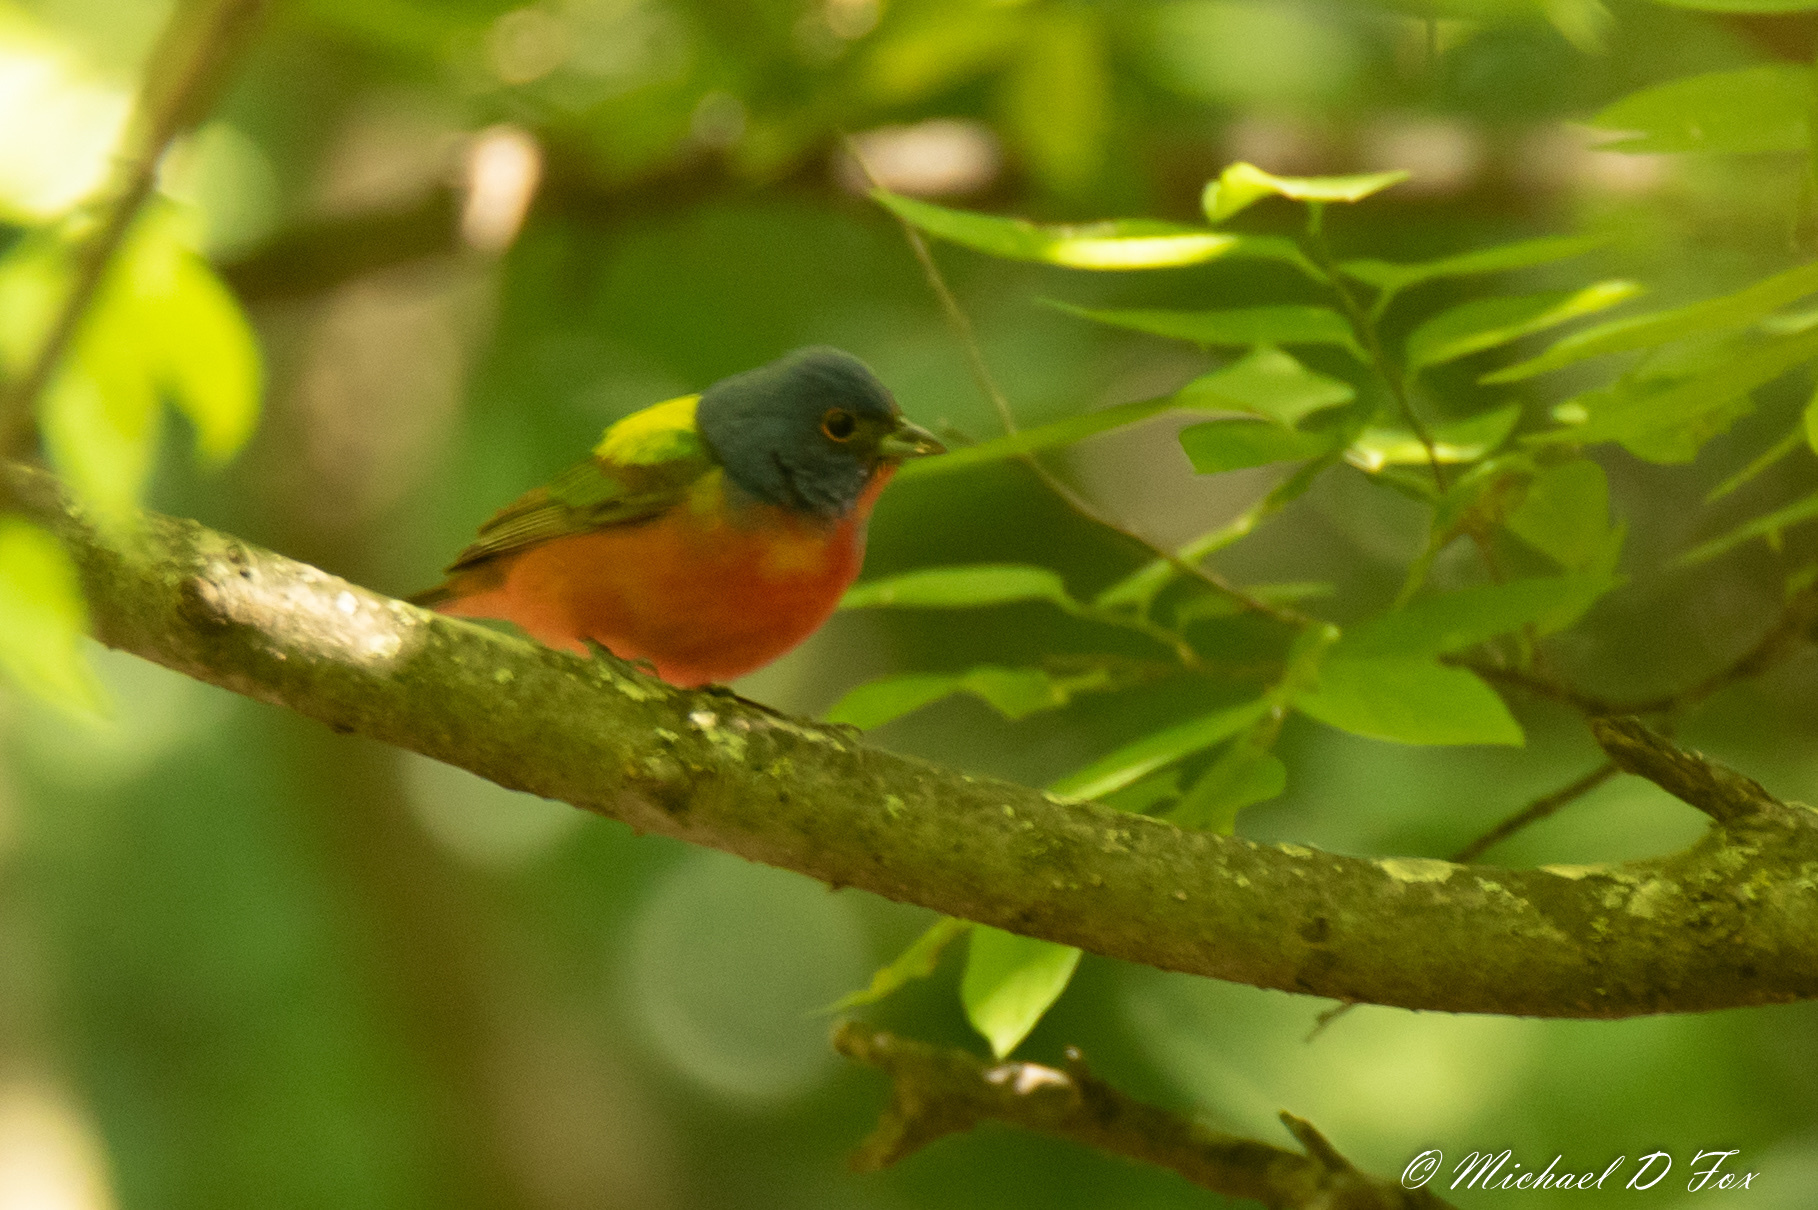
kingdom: Animalia
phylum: Chordata
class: Aves
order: Passeriformes
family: Cardinalidae
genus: Passerina
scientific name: Passerina ciris
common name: Painted bunting
